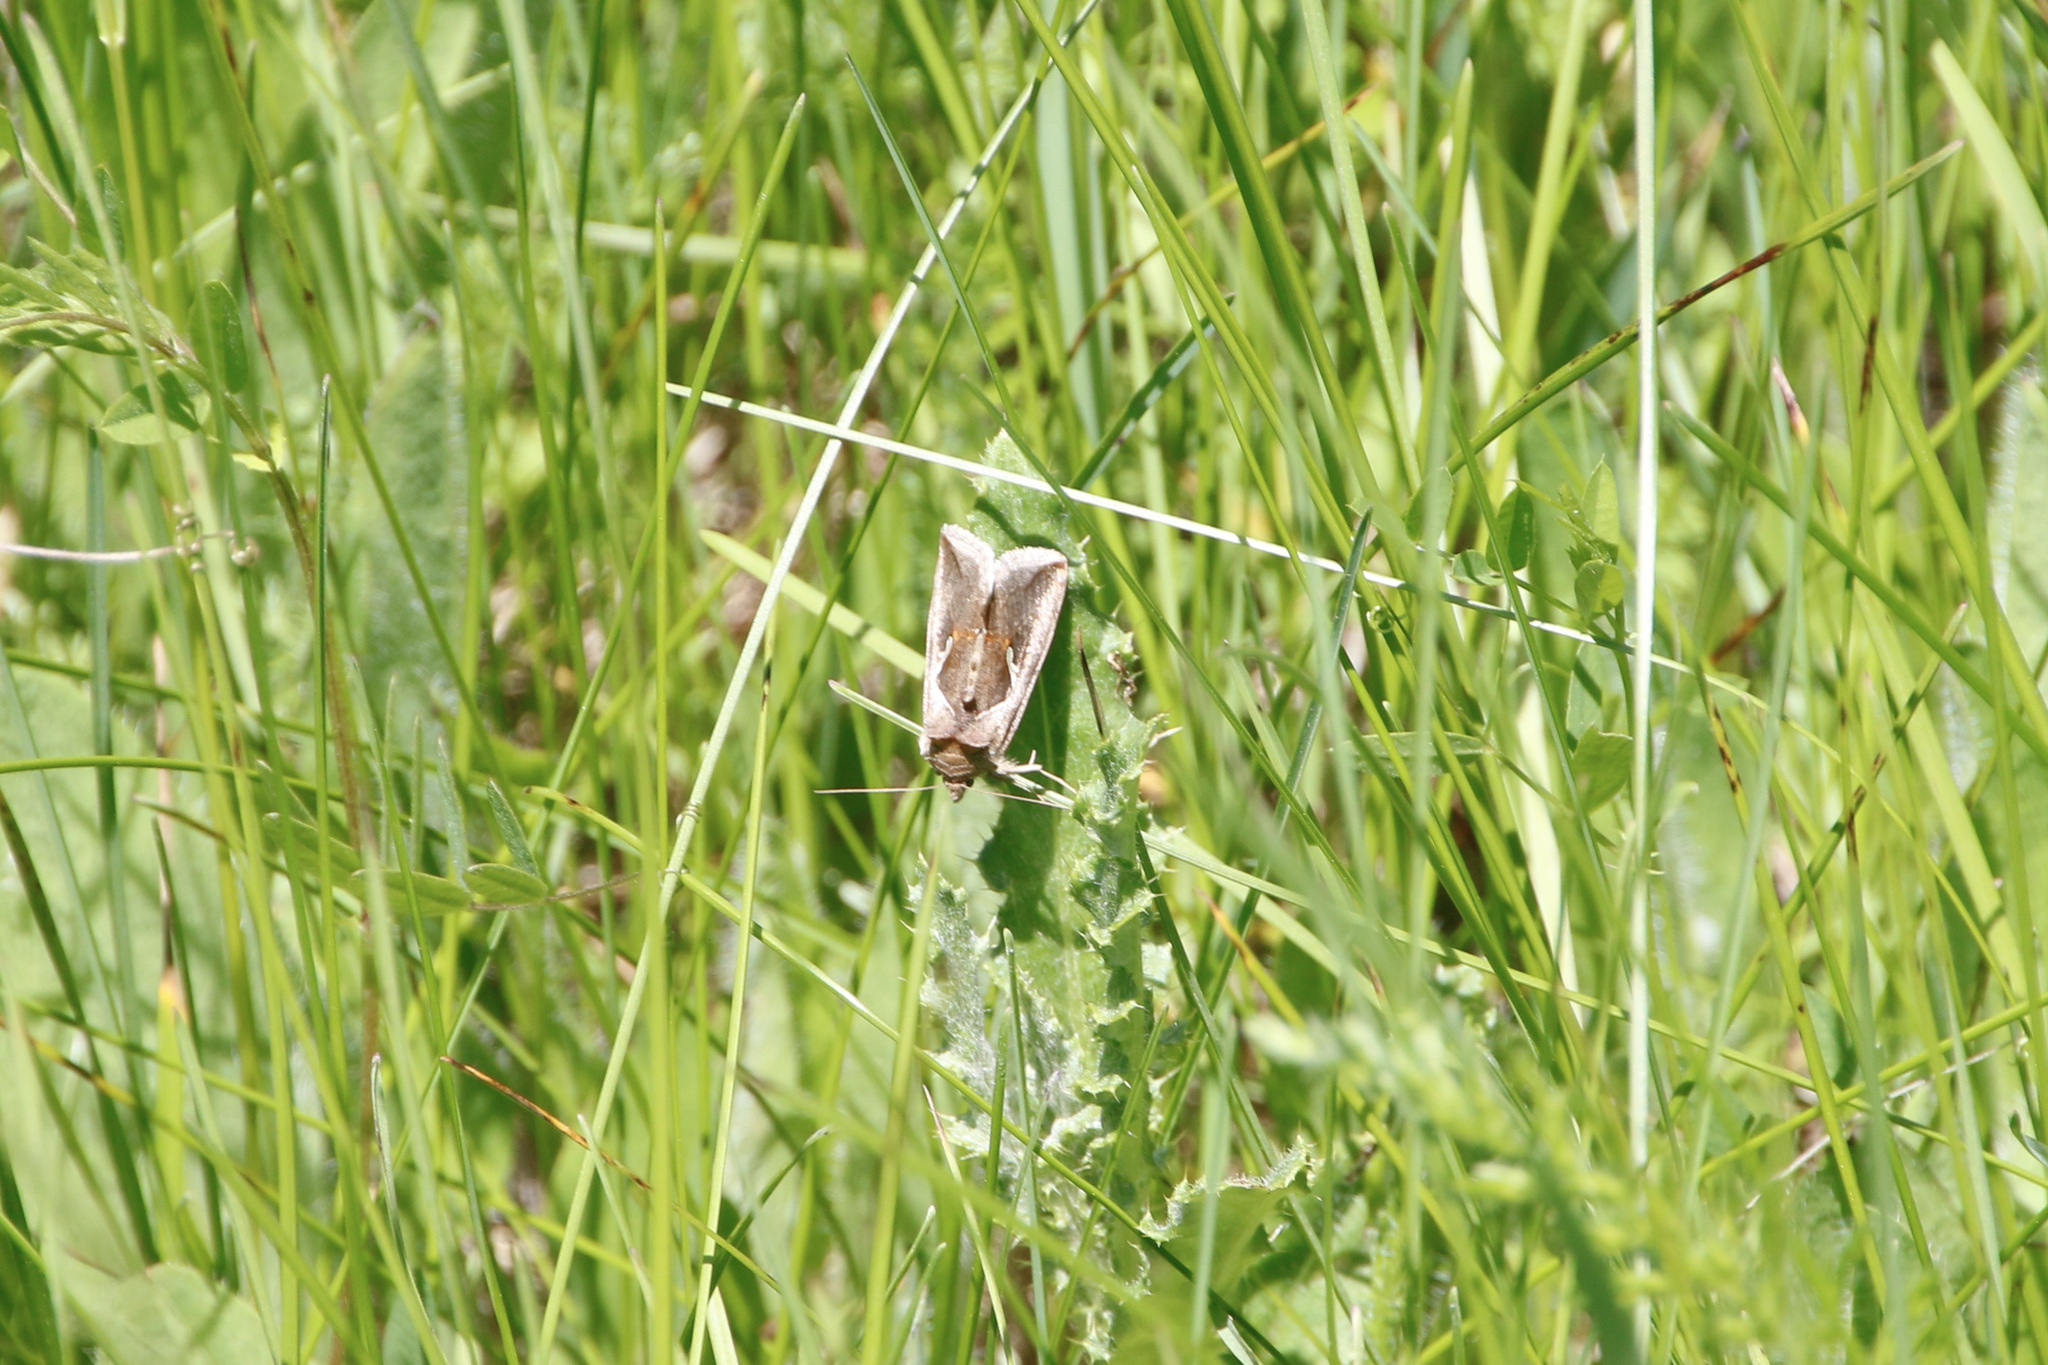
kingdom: Animalia
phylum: Arthropoda
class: Insecta
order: Lepidoptera
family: Noctuidae
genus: Anagrapha
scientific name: Anagrapha falcifera
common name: Celery looper
